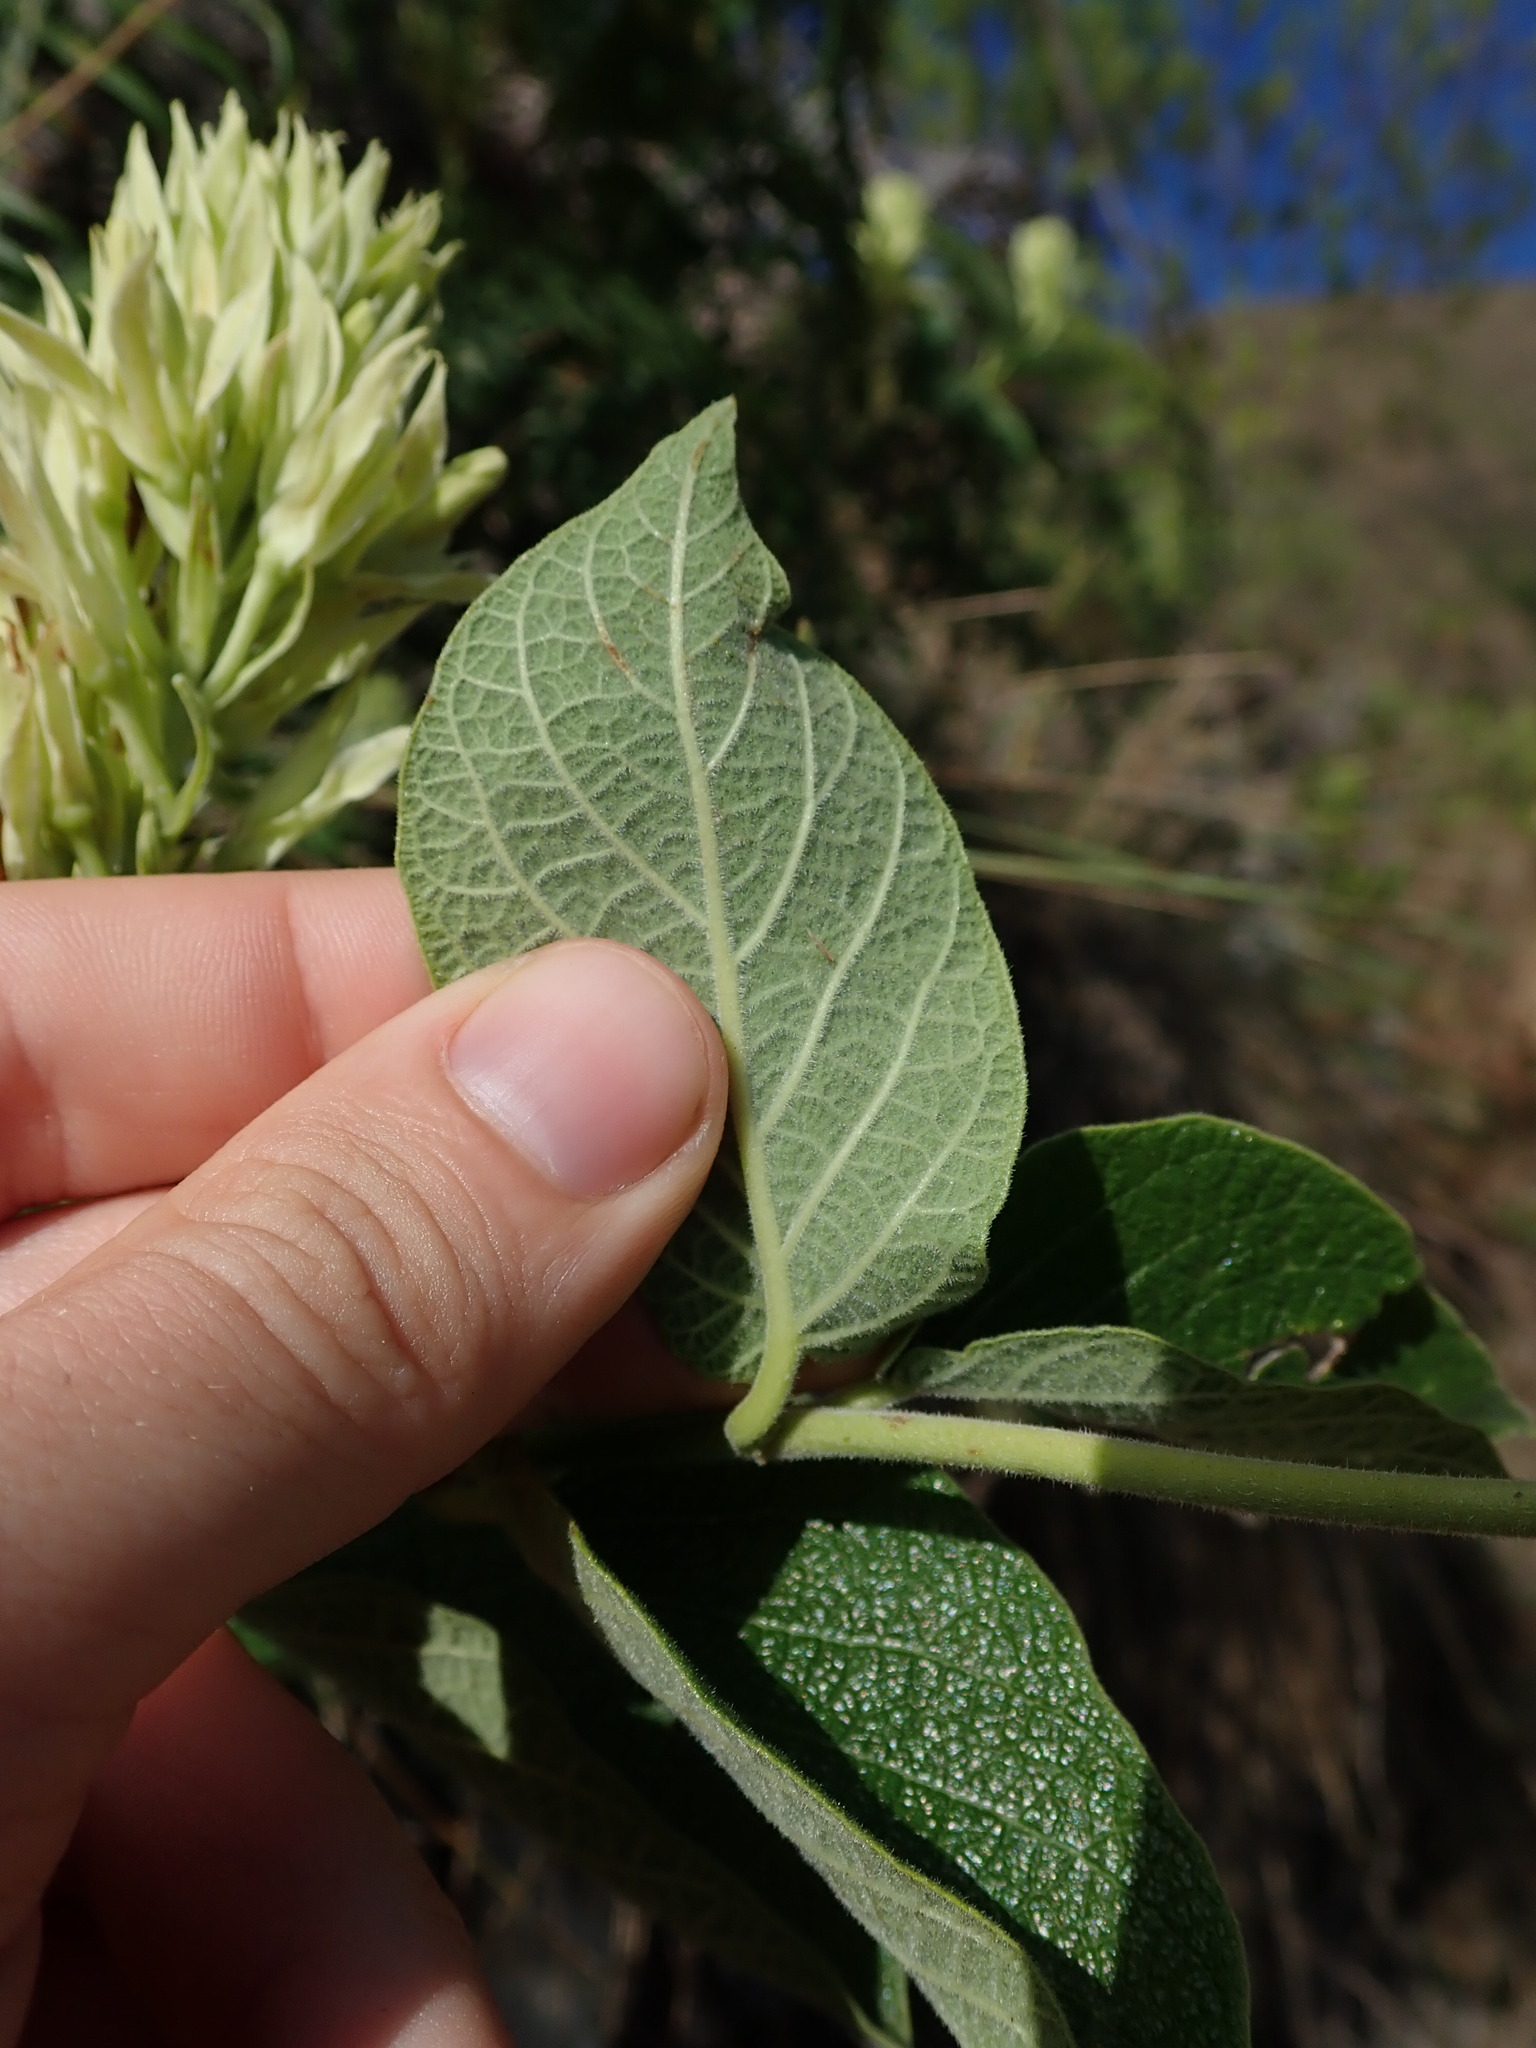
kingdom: Plantae
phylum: Tracheophyta
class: Magnoliopsida
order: Gentianales
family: Apocynaceae
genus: Mandevilla
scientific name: Mandevilla pentlandiana
